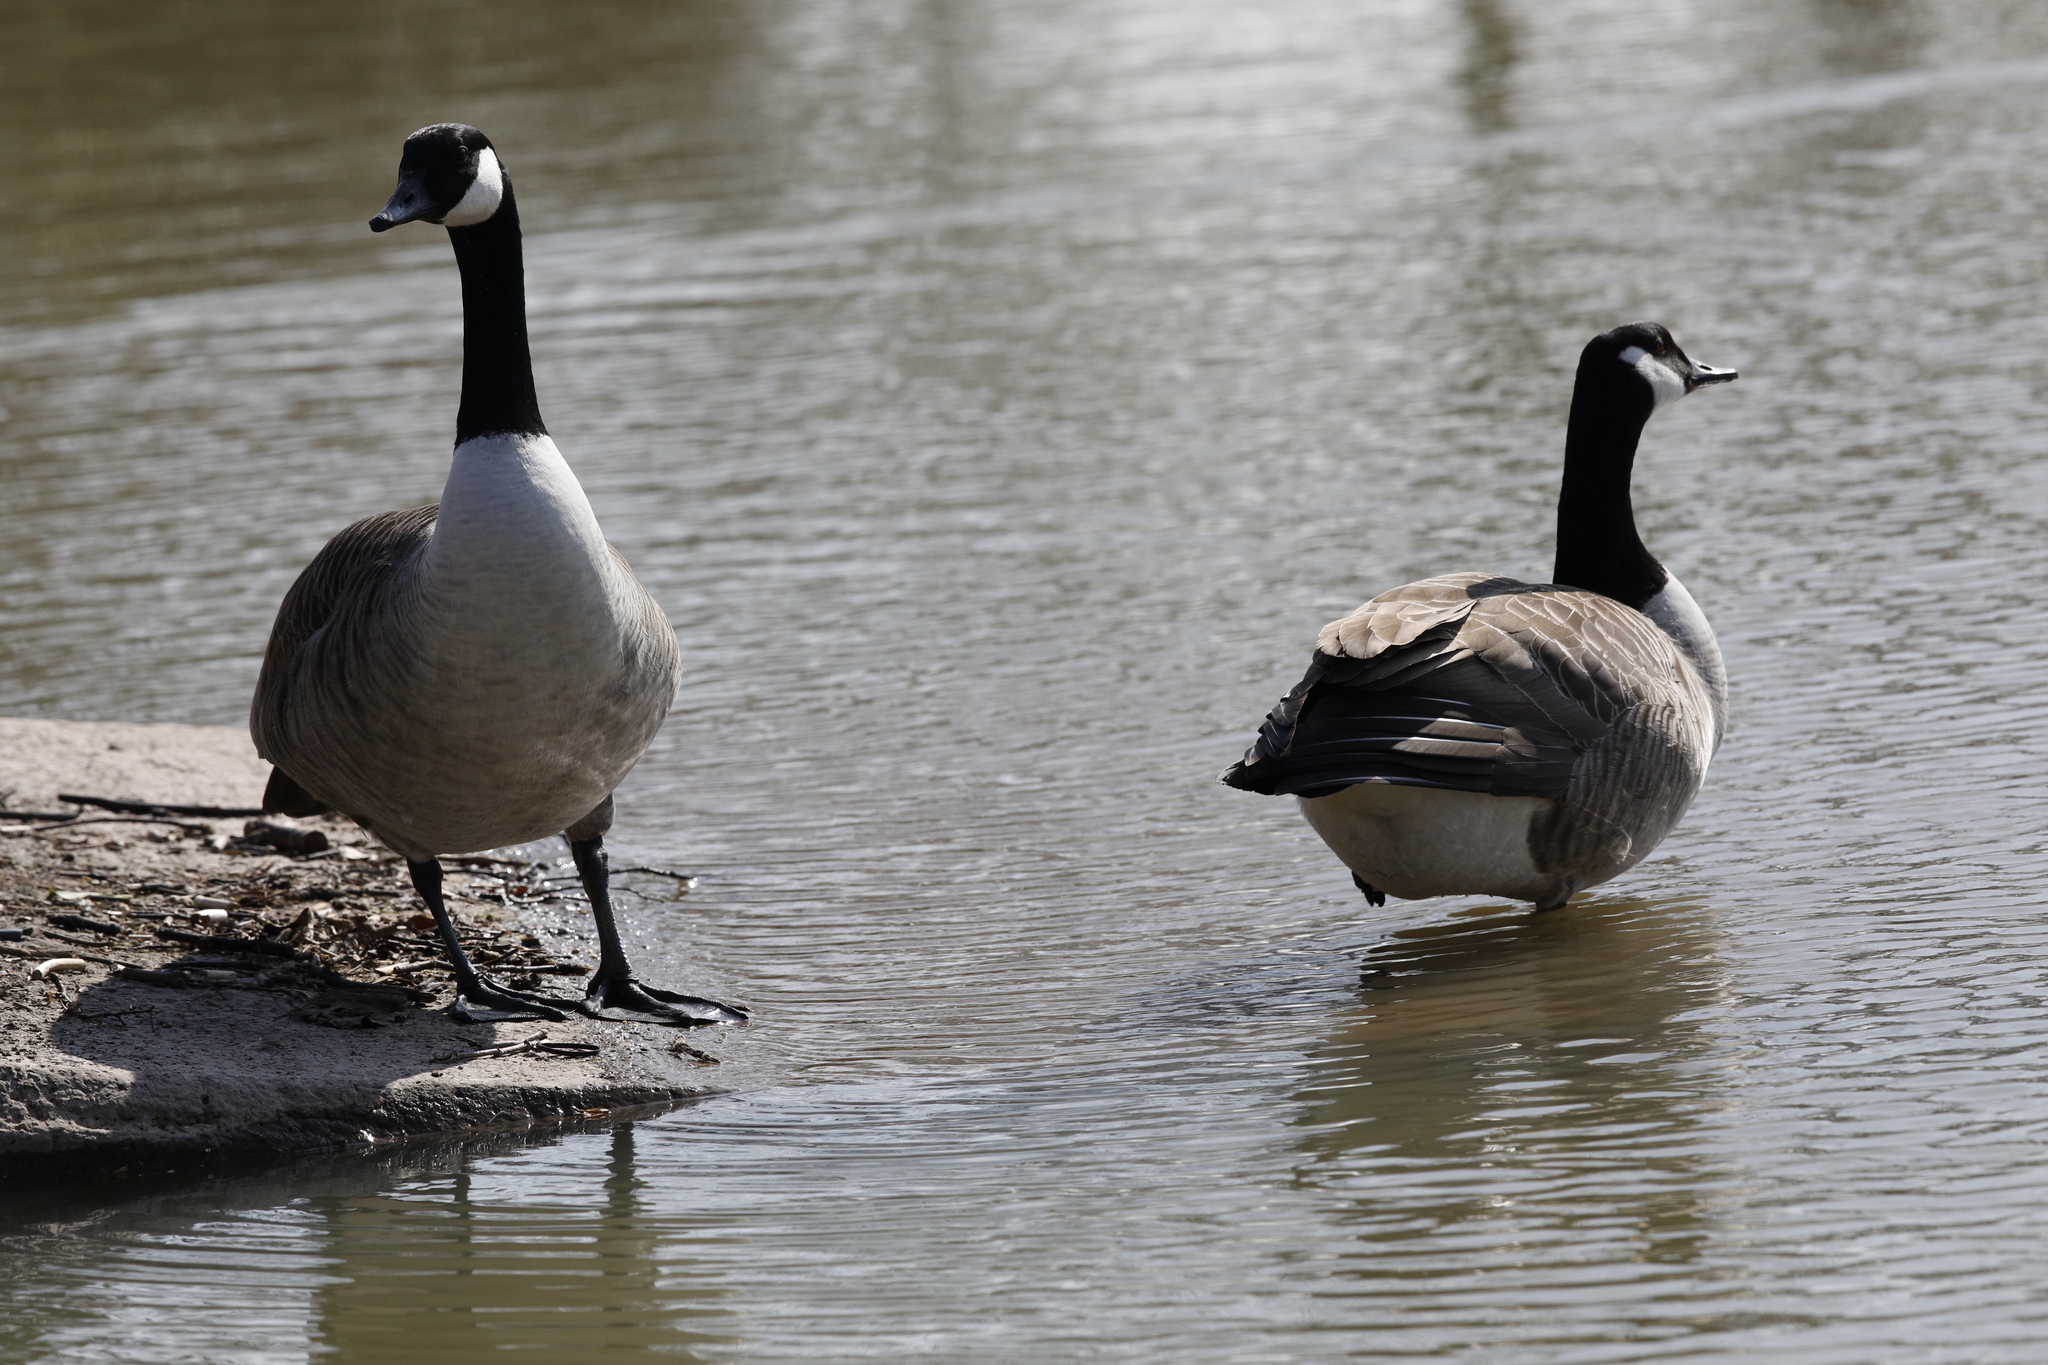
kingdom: Animalia
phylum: Chordata
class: Aves
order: Anseriformes
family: Anatidae
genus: Branta
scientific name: Branta canadensis
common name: Canada goose
